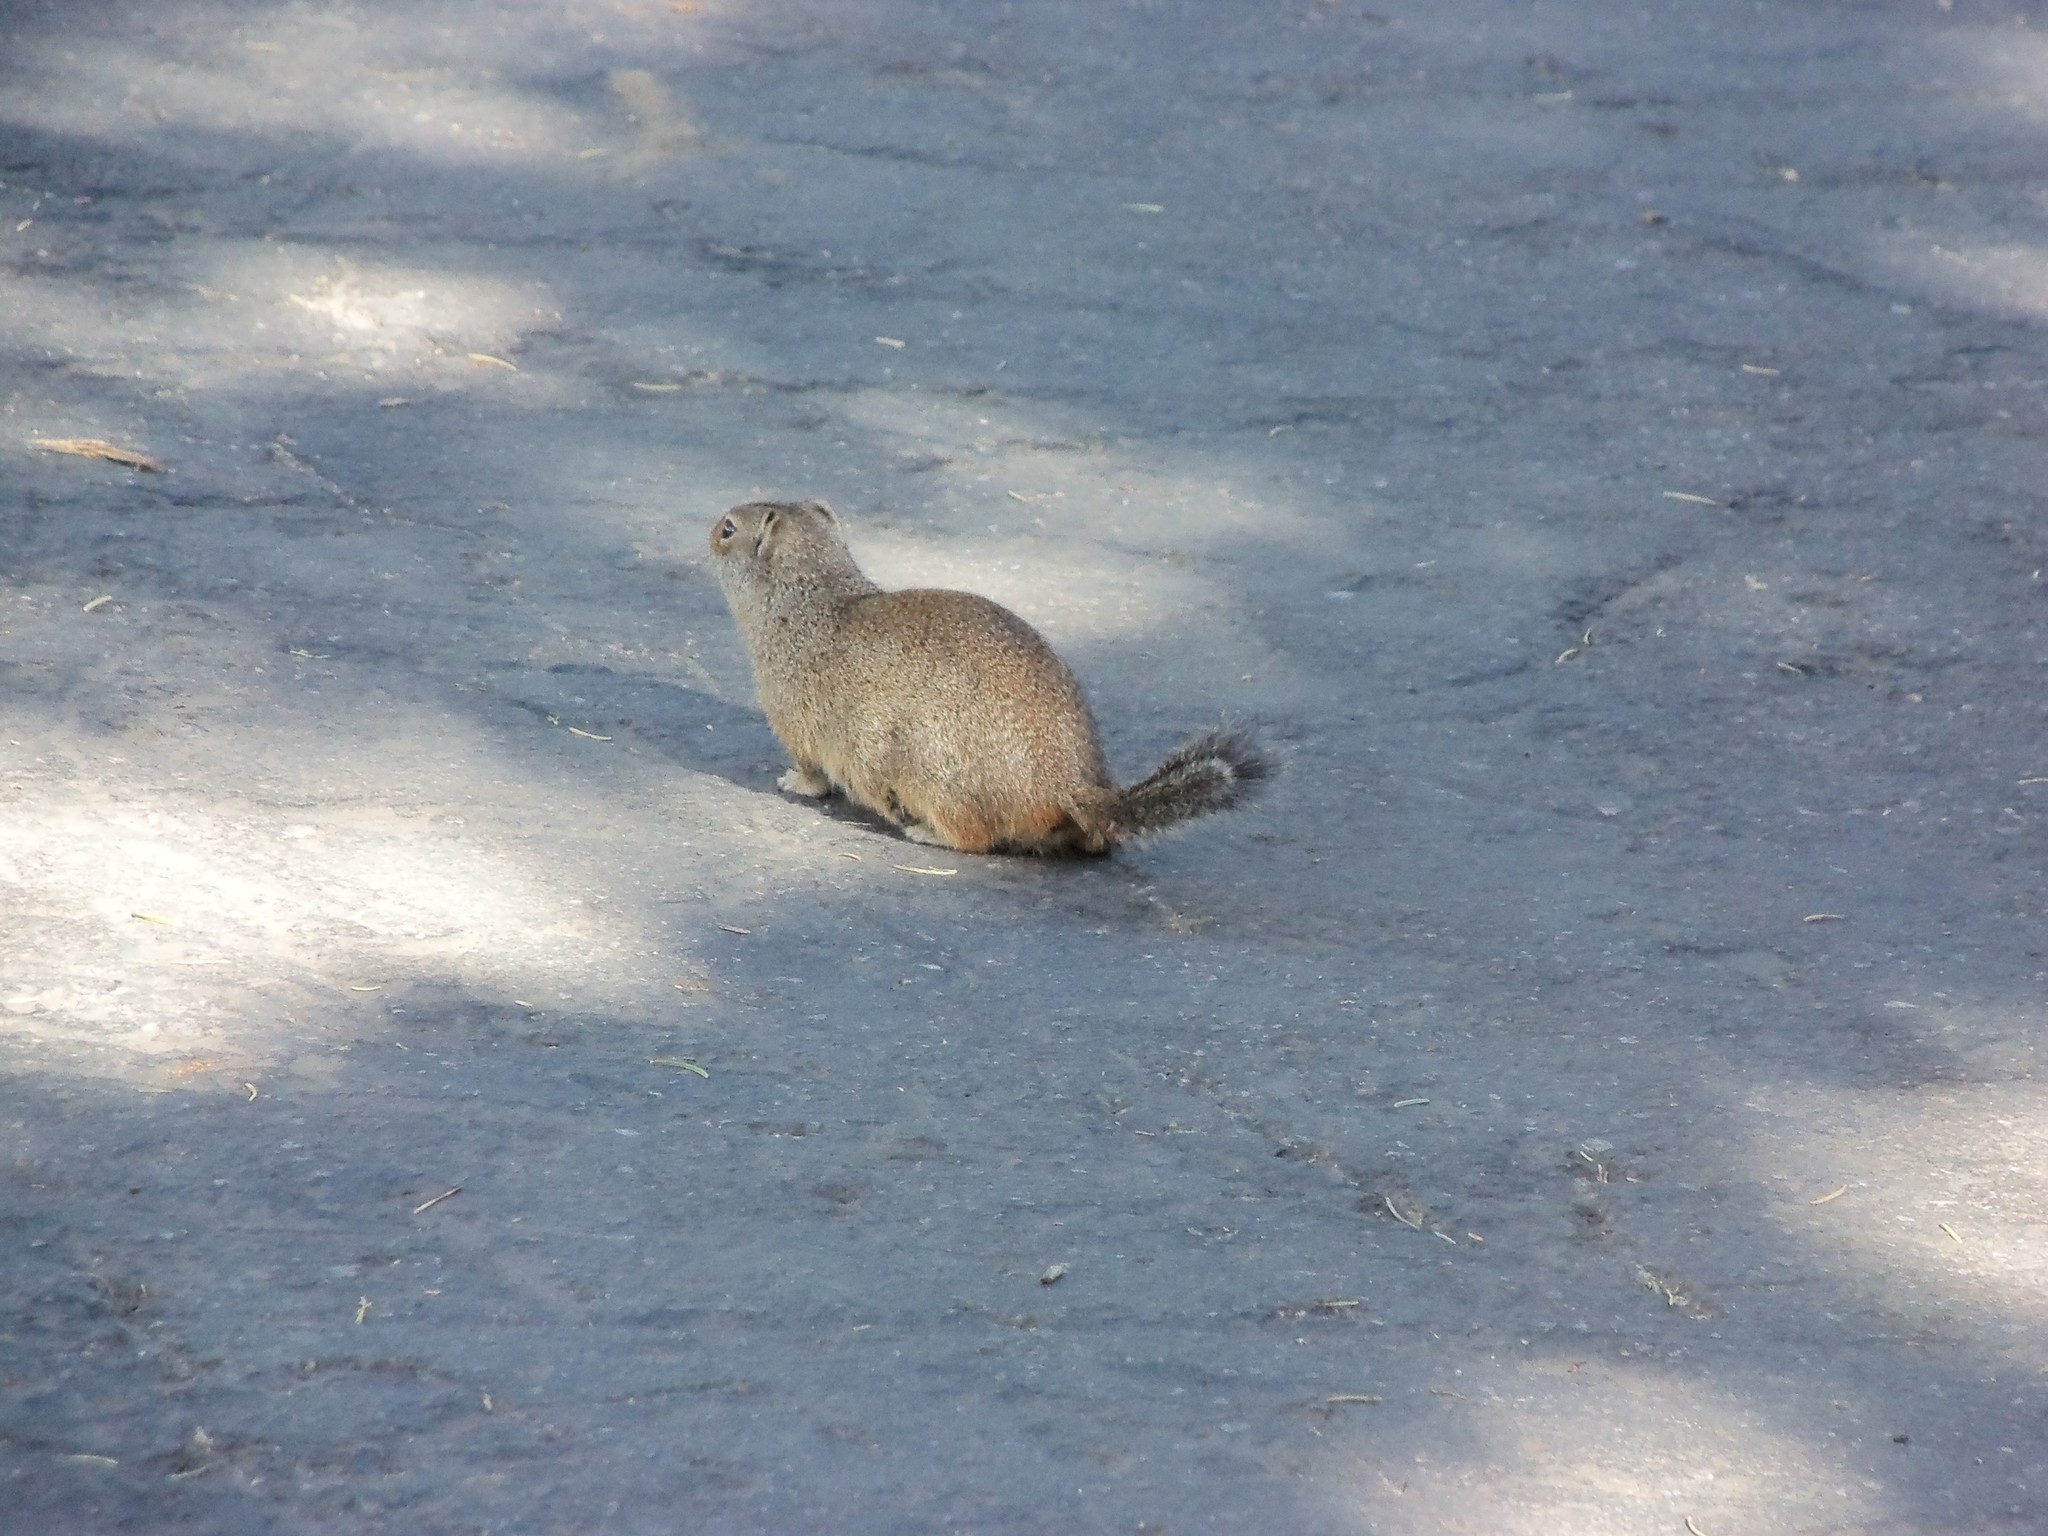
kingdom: Animalia
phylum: Chordata
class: Mammalia
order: Rodentia
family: Sciuridae
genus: Urocitellus
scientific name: Urocitellus armatus
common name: Uinta ground squirrel
